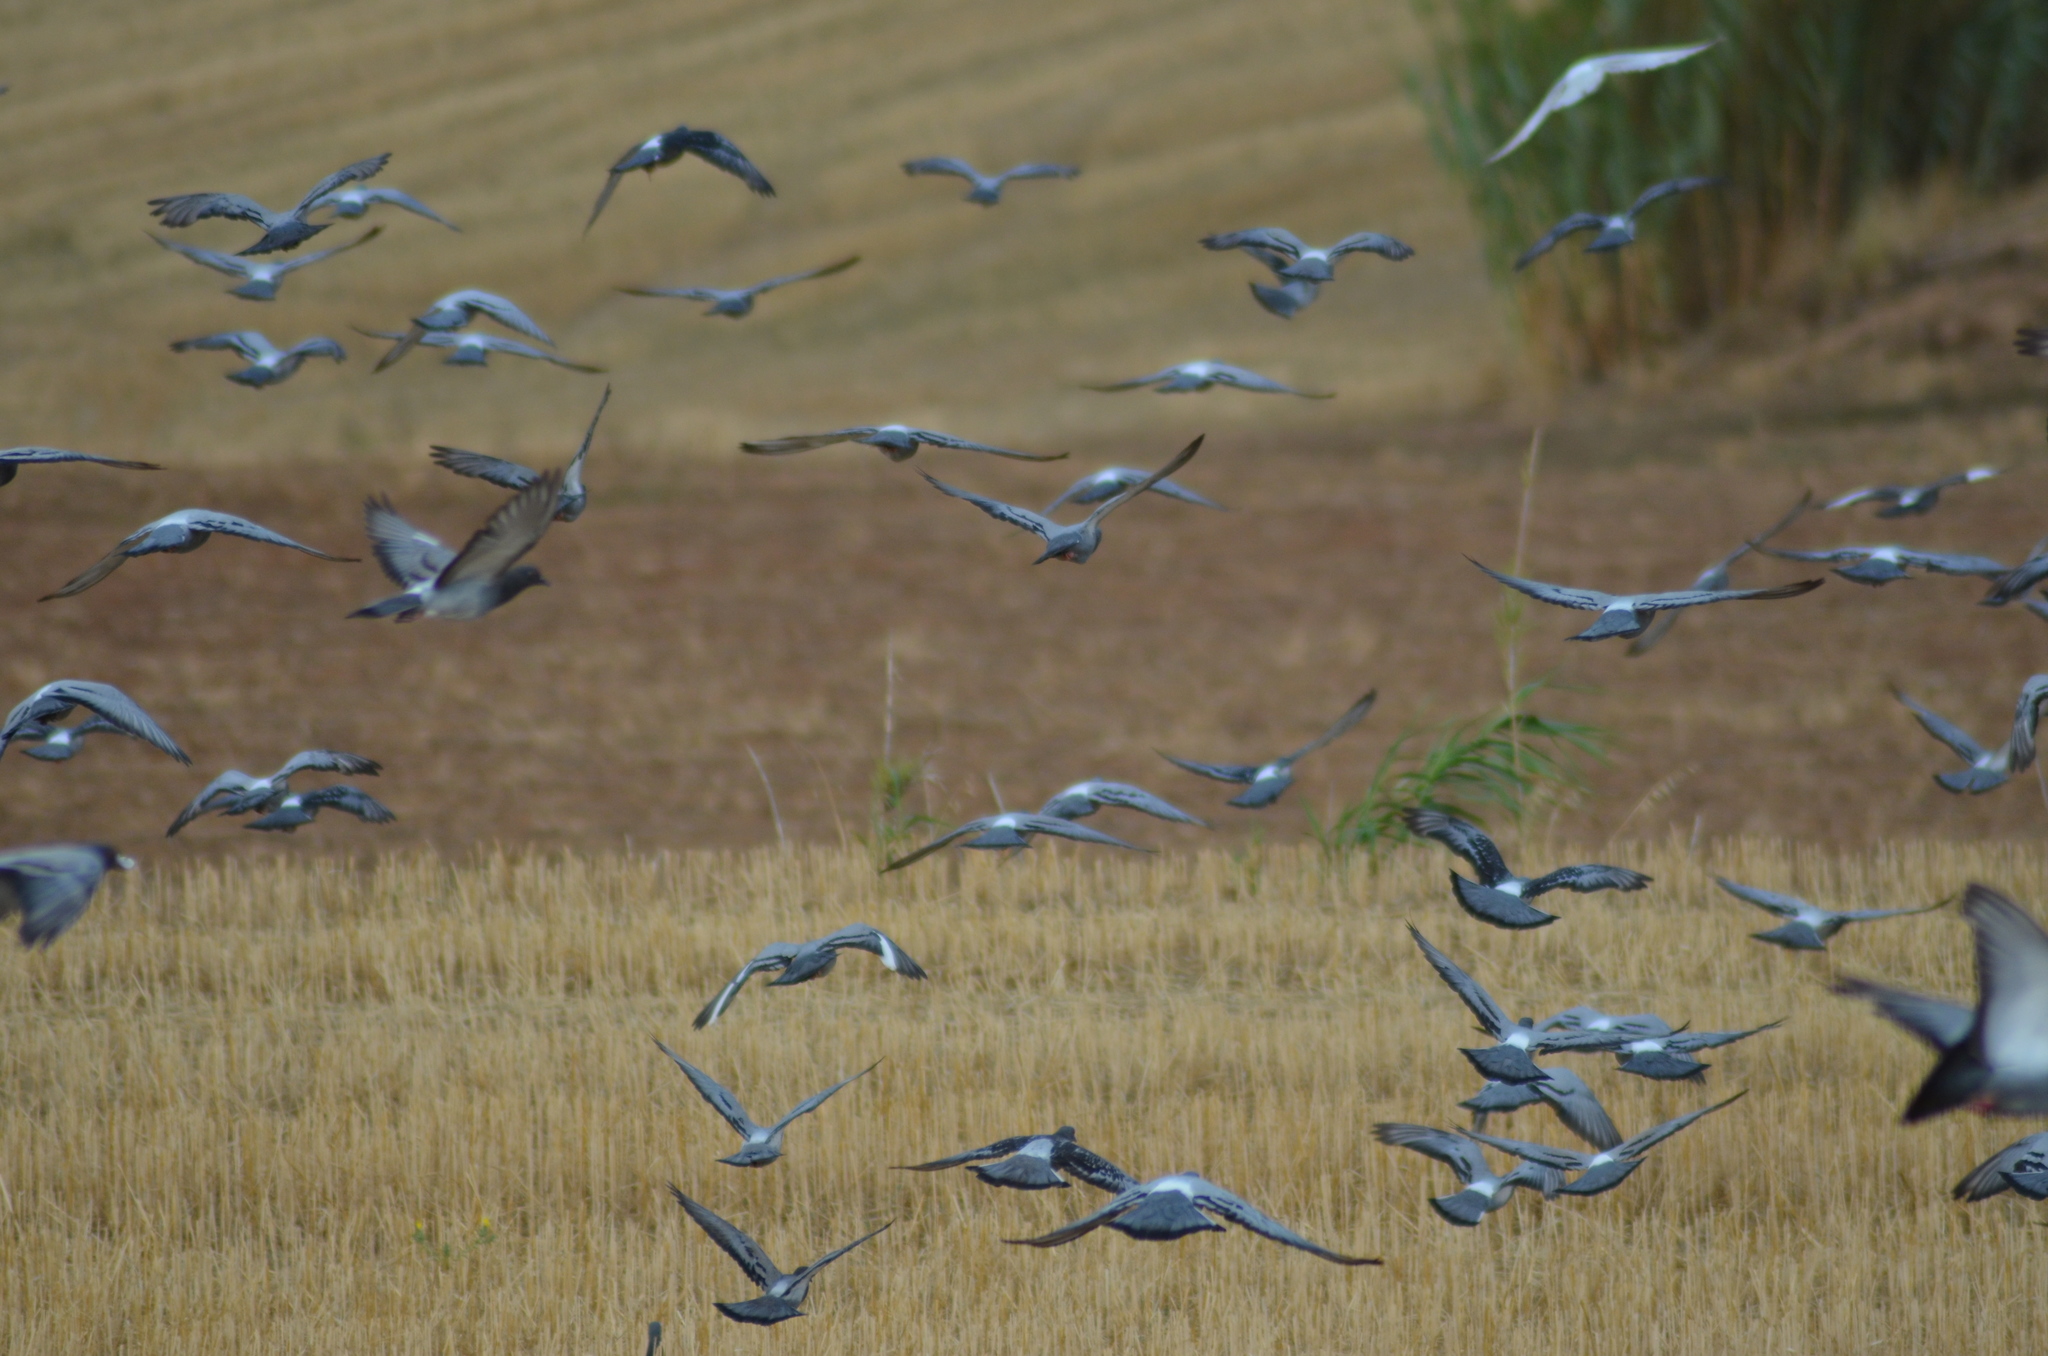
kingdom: Animalia
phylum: Chordata
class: Aves
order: Columbiformes
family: Columbidae
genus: Columba
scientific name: Columba livia
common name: Rock pigeon
